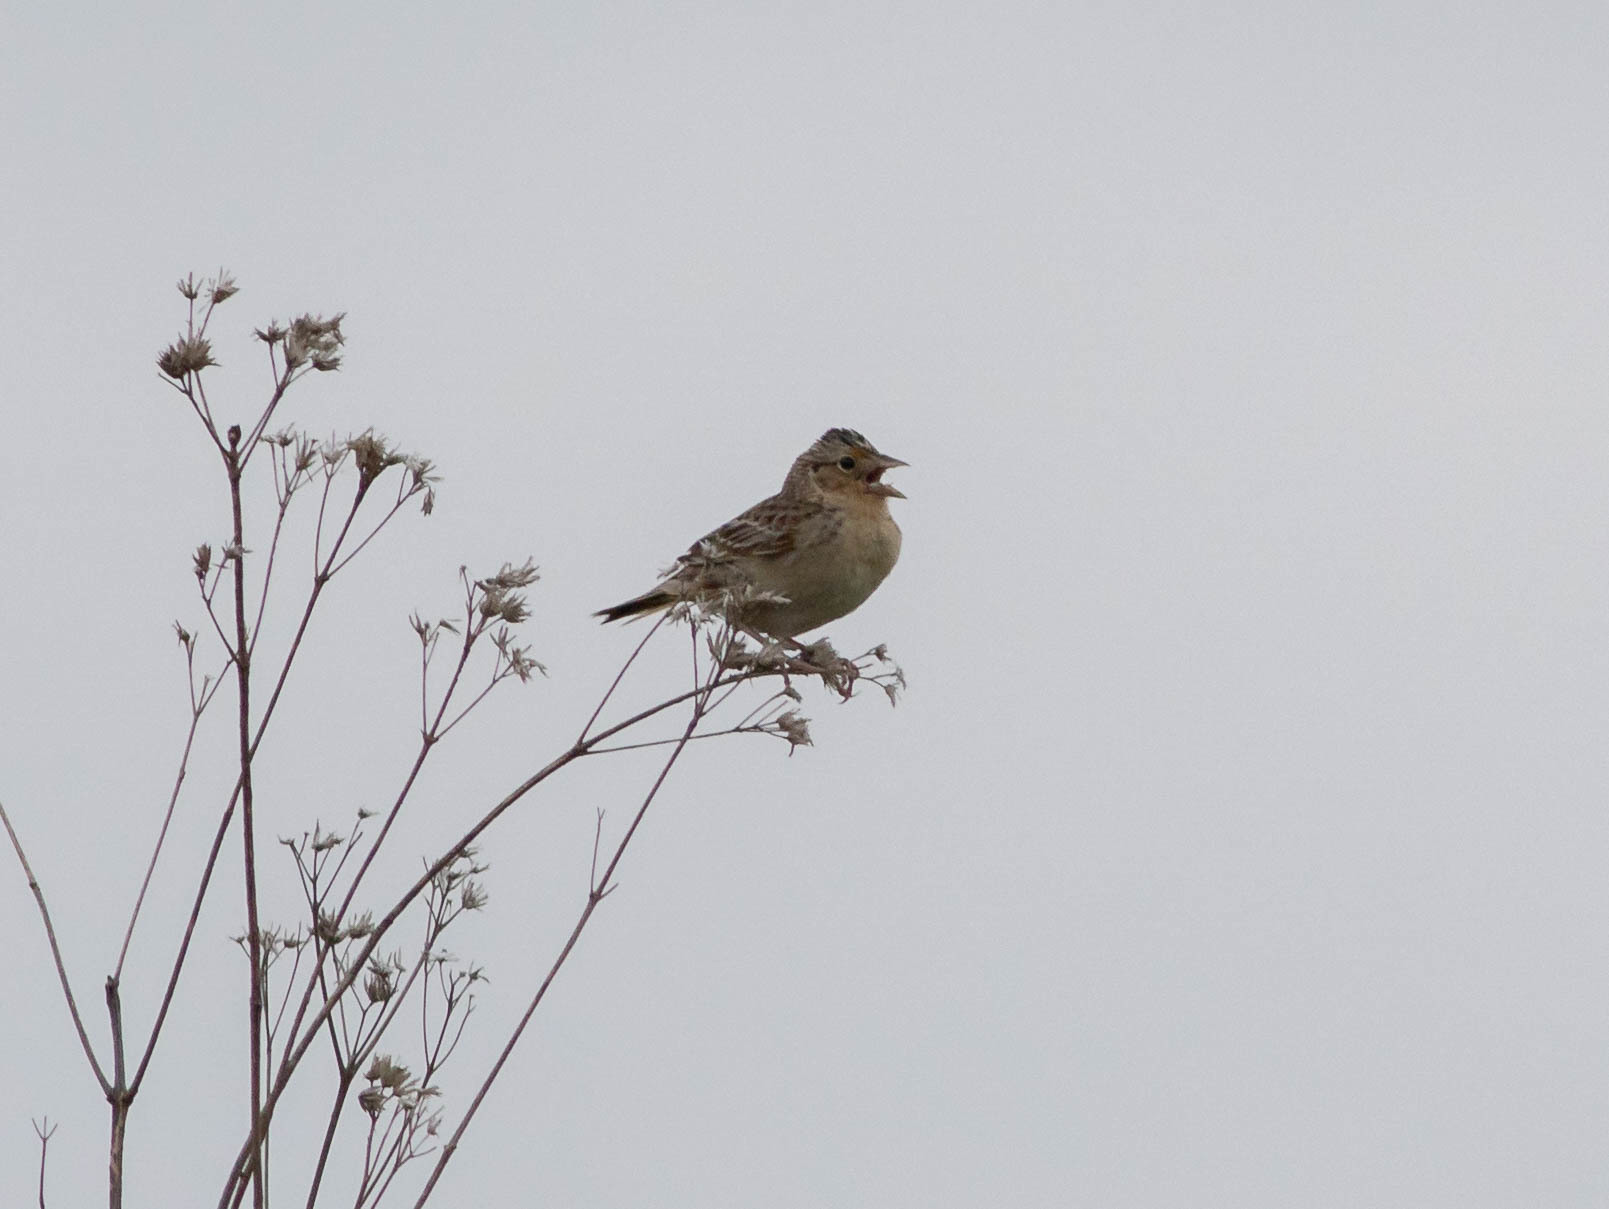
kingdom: Animalia
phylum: Chordata
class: Aves
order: Passeriformes
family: Passerellidae
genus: Ammodramus
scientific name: Ammodramus savannarum
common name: Grasshopper sparrow
